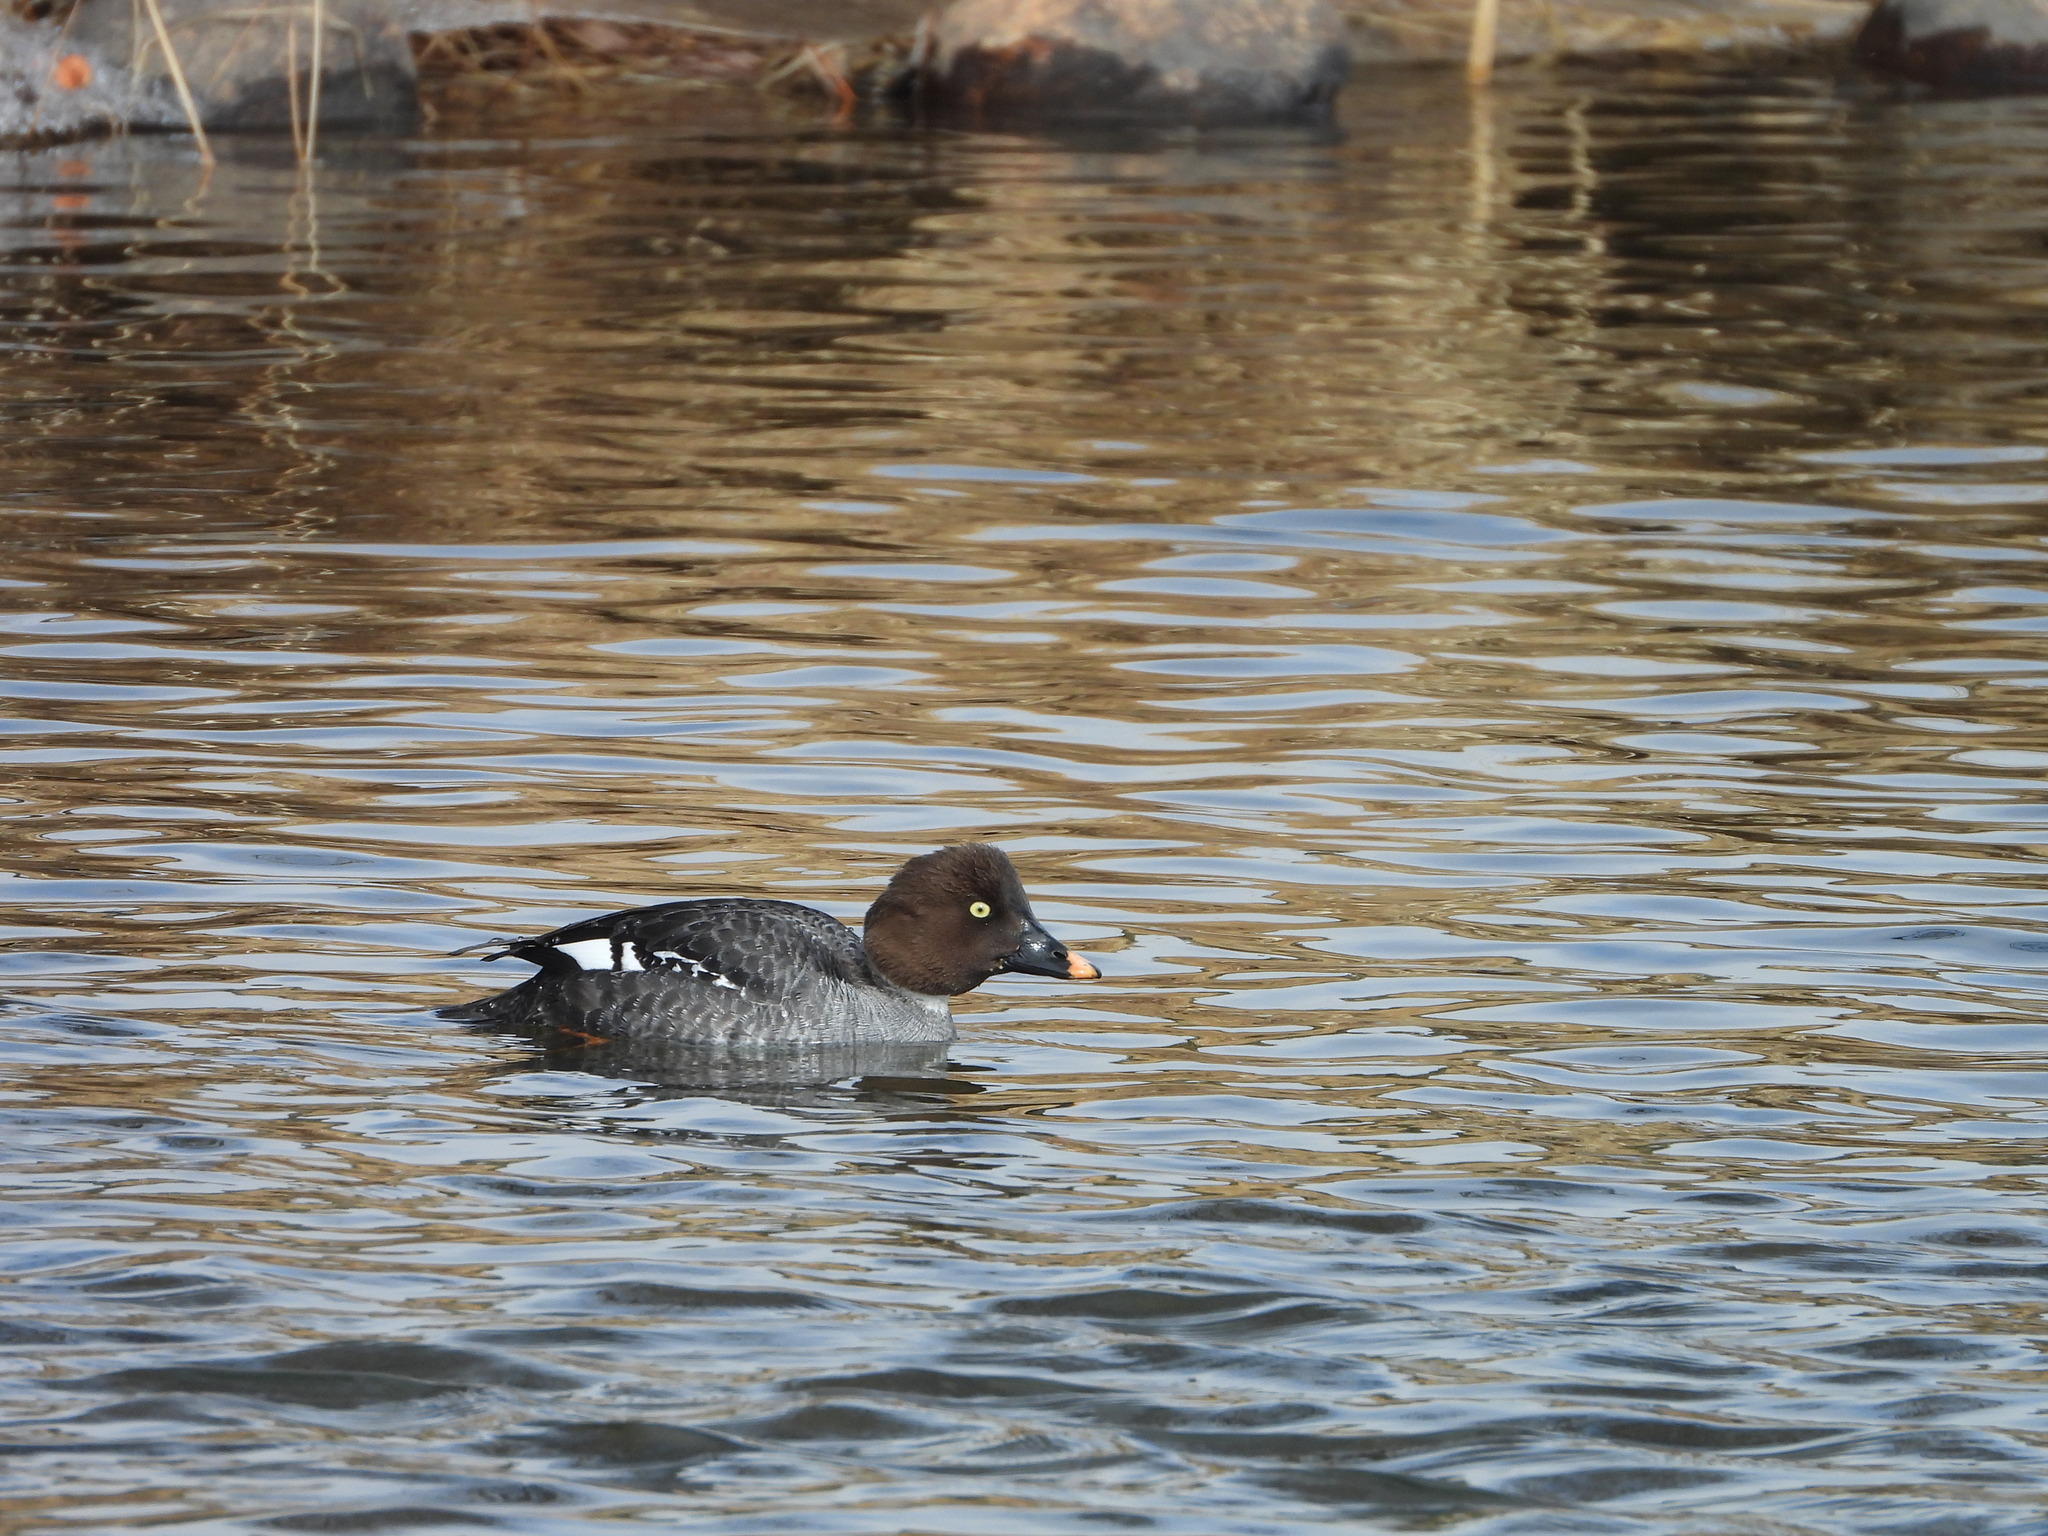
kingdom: Animalia
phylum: Chordata
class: Aves
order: Anseriformes
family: Anatidae
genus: Bucephala
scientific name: Bucephala clangula
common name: Common goldeneye
